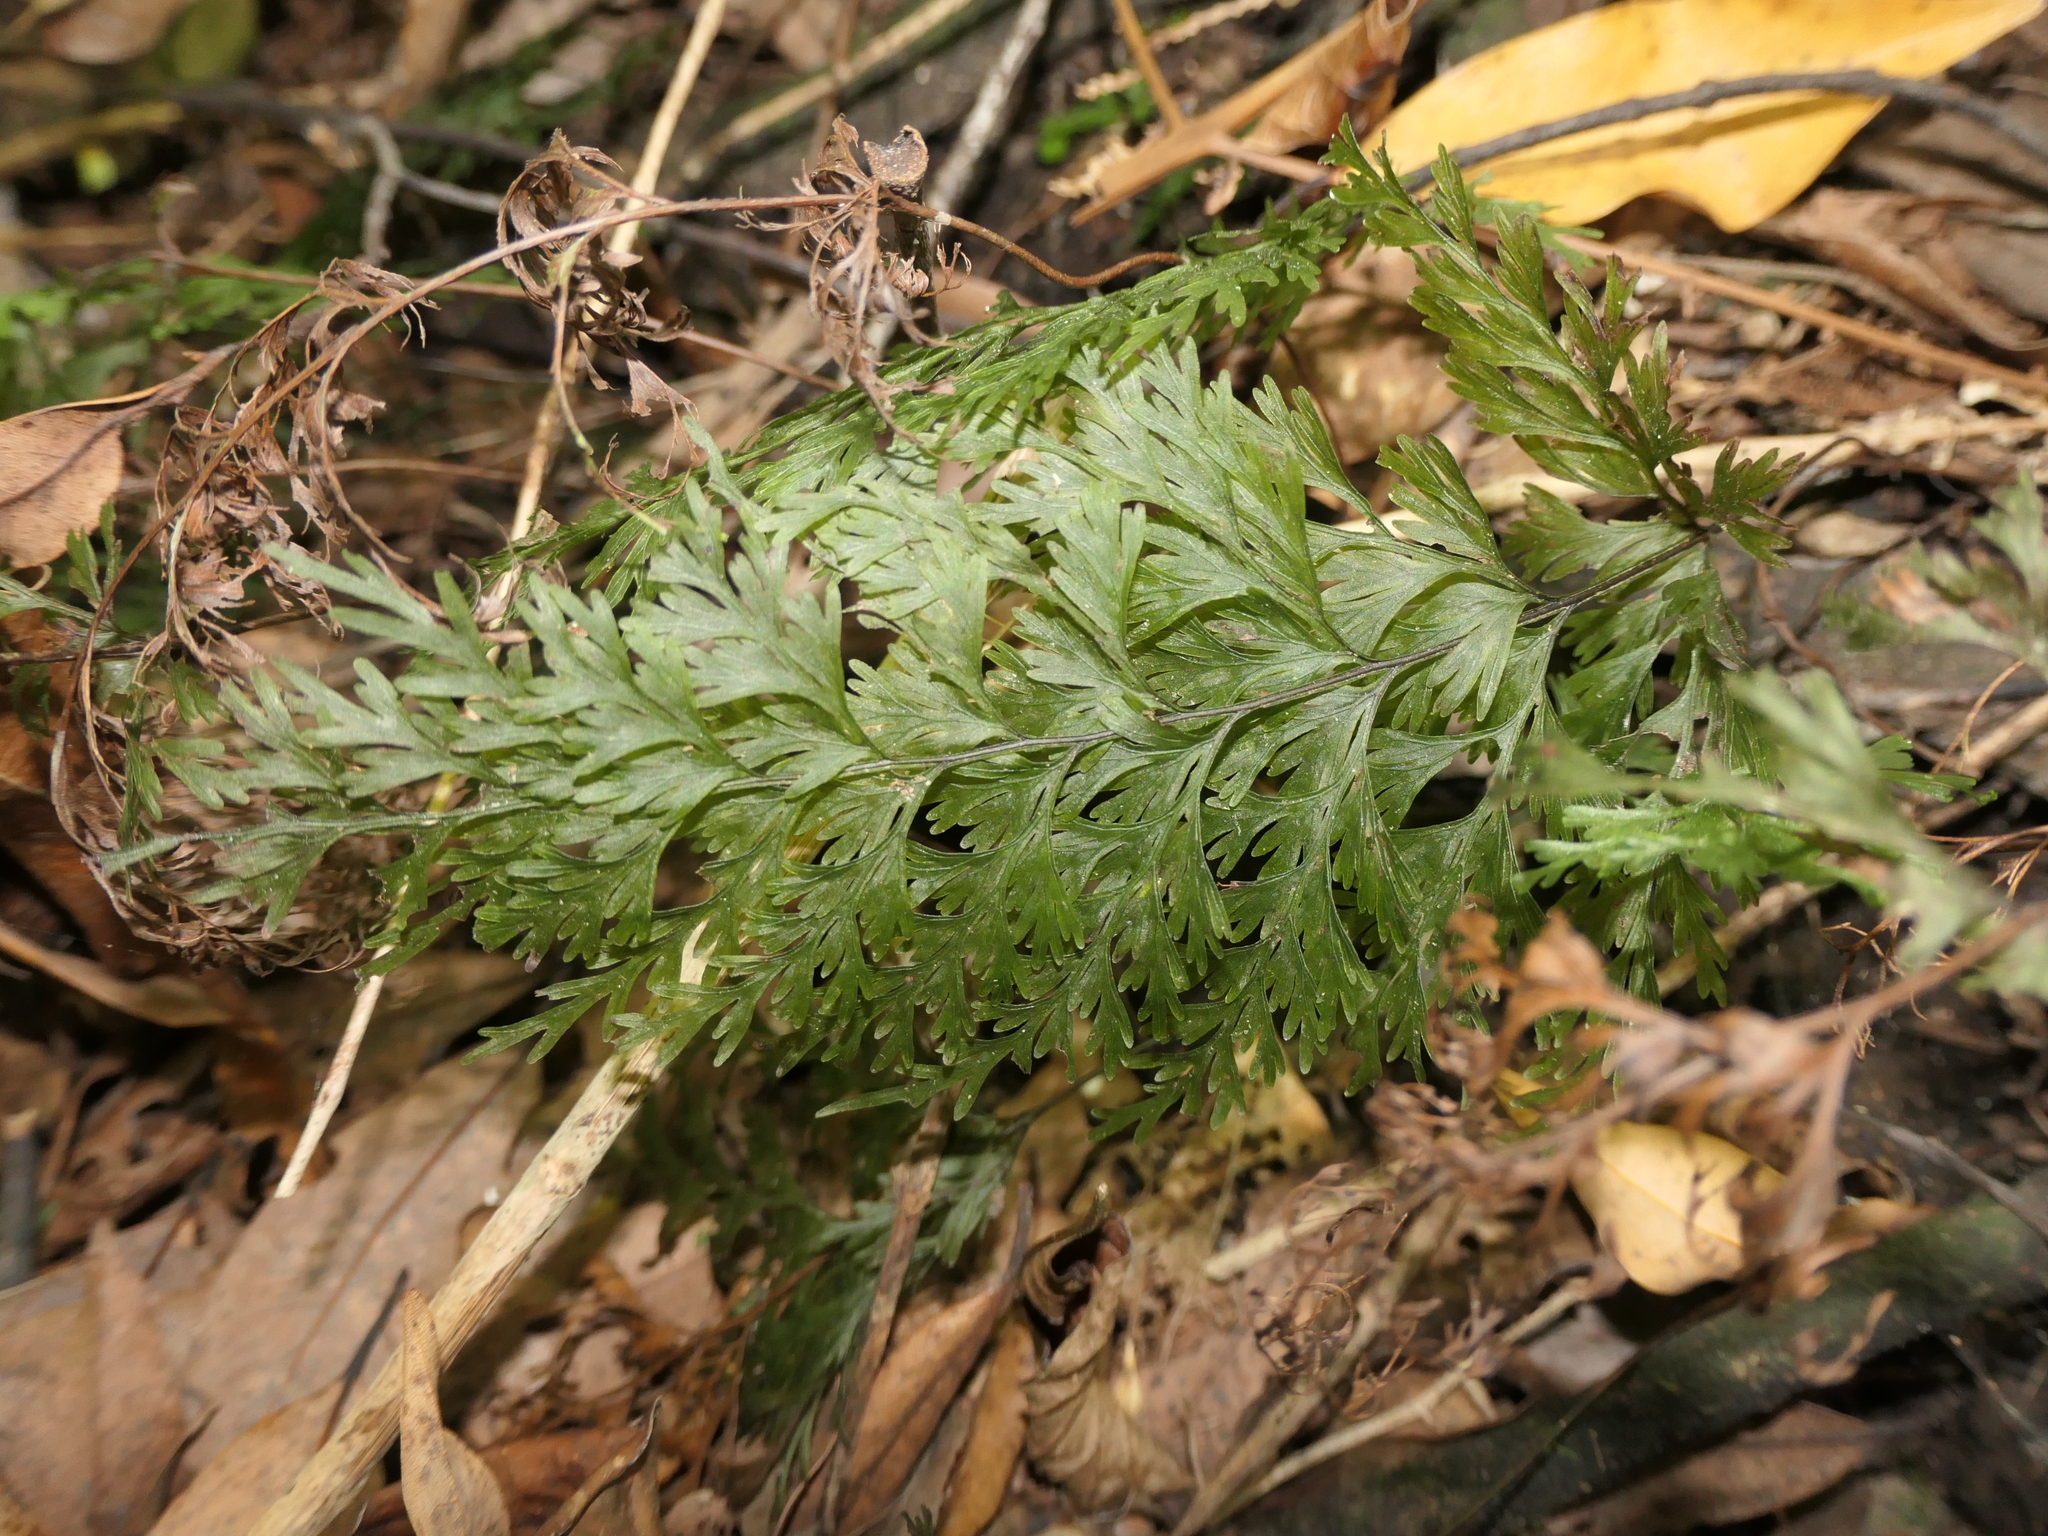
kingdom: Plantae
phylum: Tracheophyta
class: Polypodiopsida
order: Hymenophyllales
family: Hymenophyllaceae
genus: Hymenophyllum
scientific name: Hymenophyllum demissum
